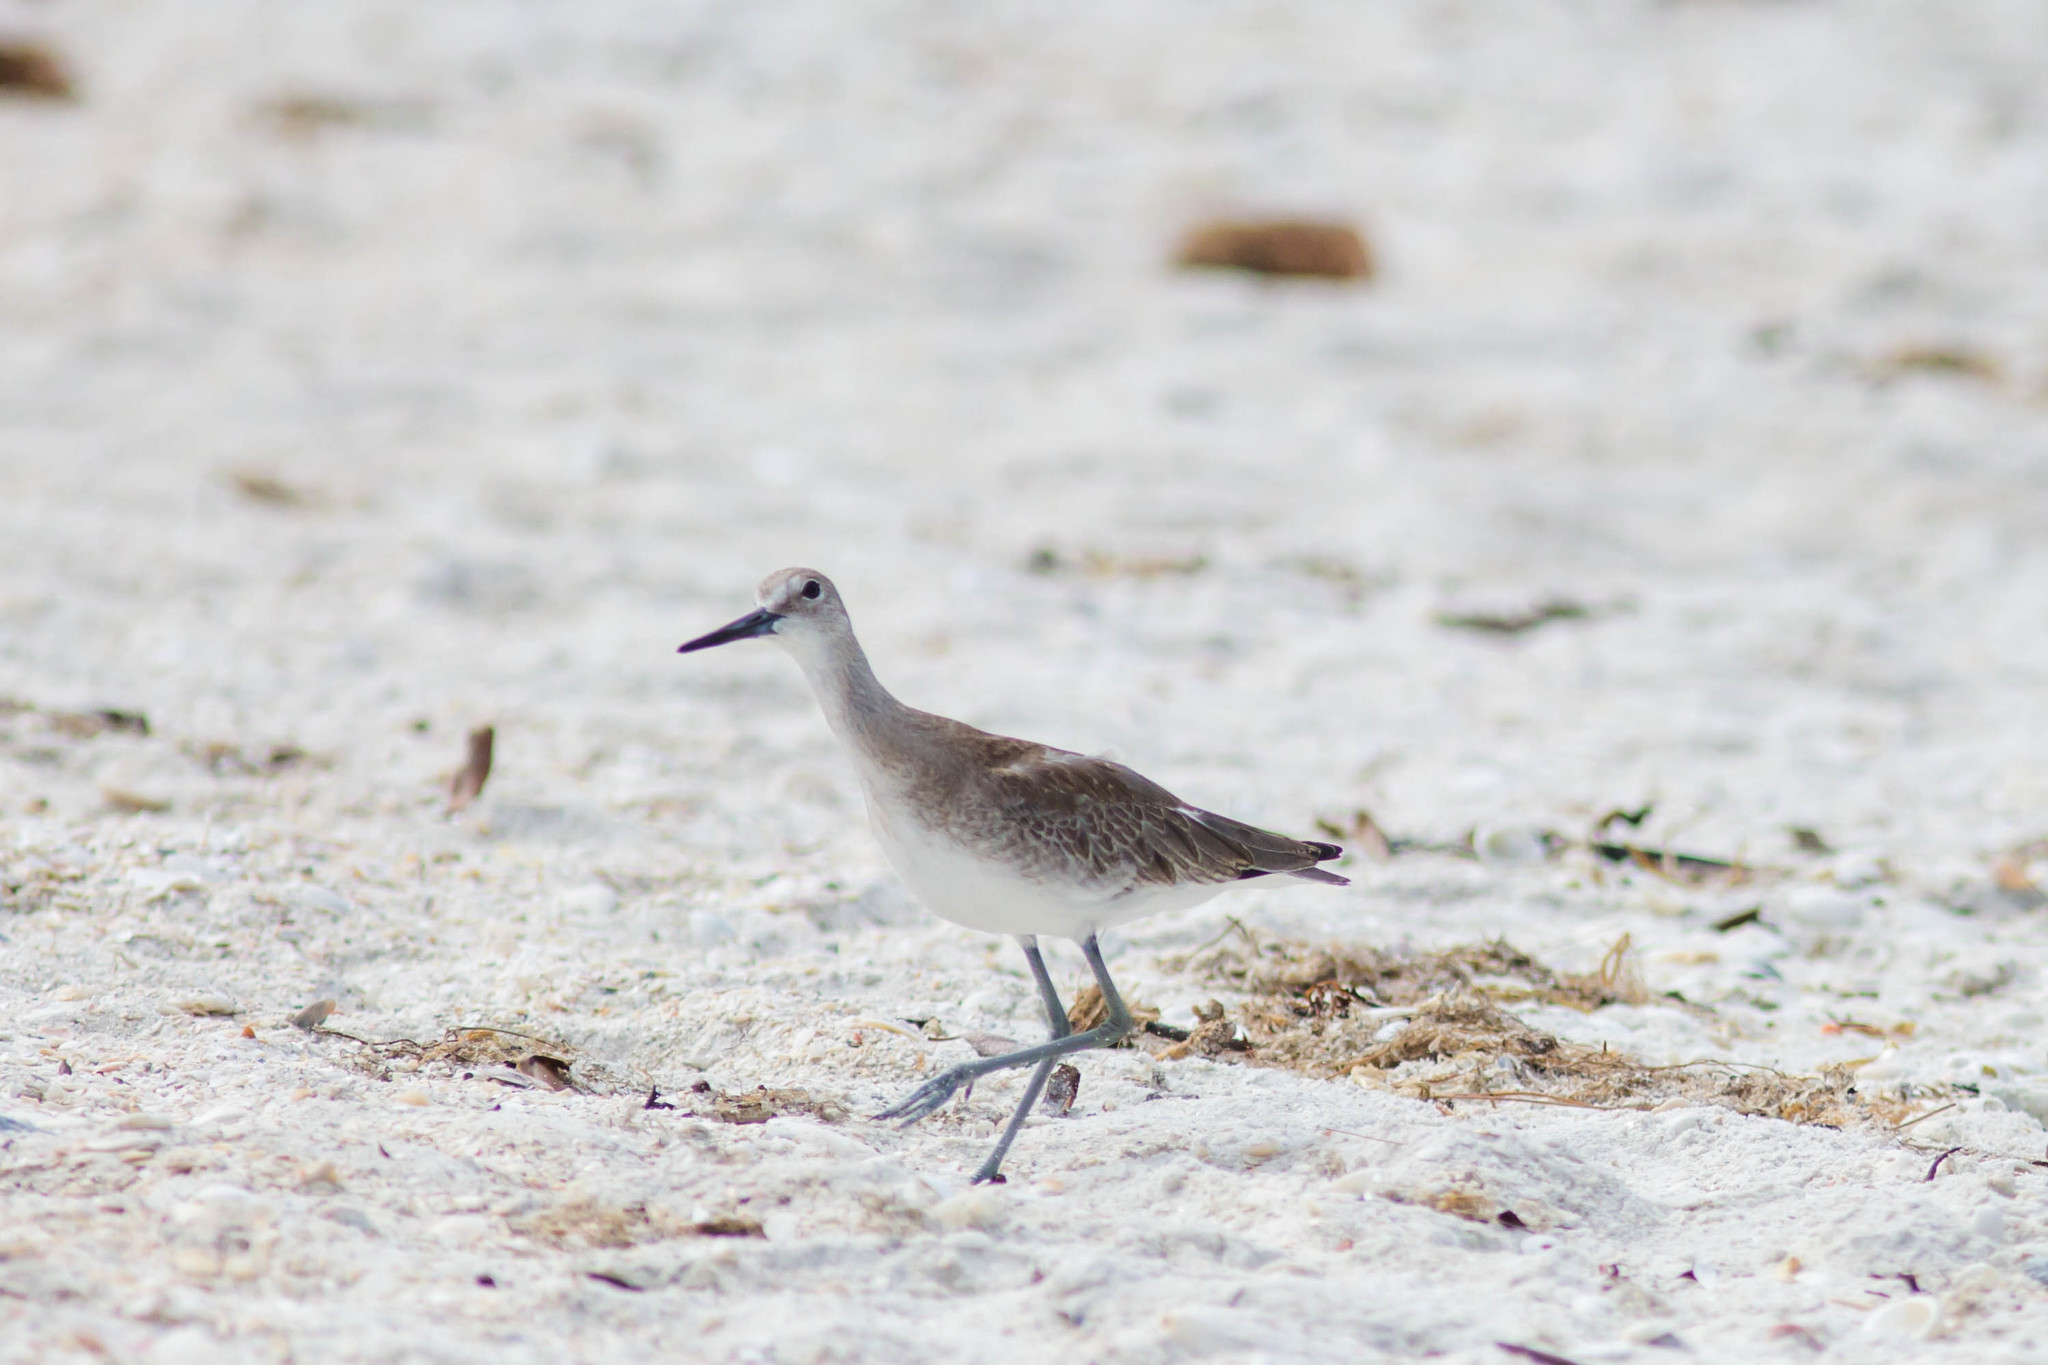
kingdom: Animalia
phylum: Chordata
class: Aves
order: Charadriiformes
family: Scolopacidae
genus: Tringa
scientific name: Tringa semipalmata
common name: Willet
